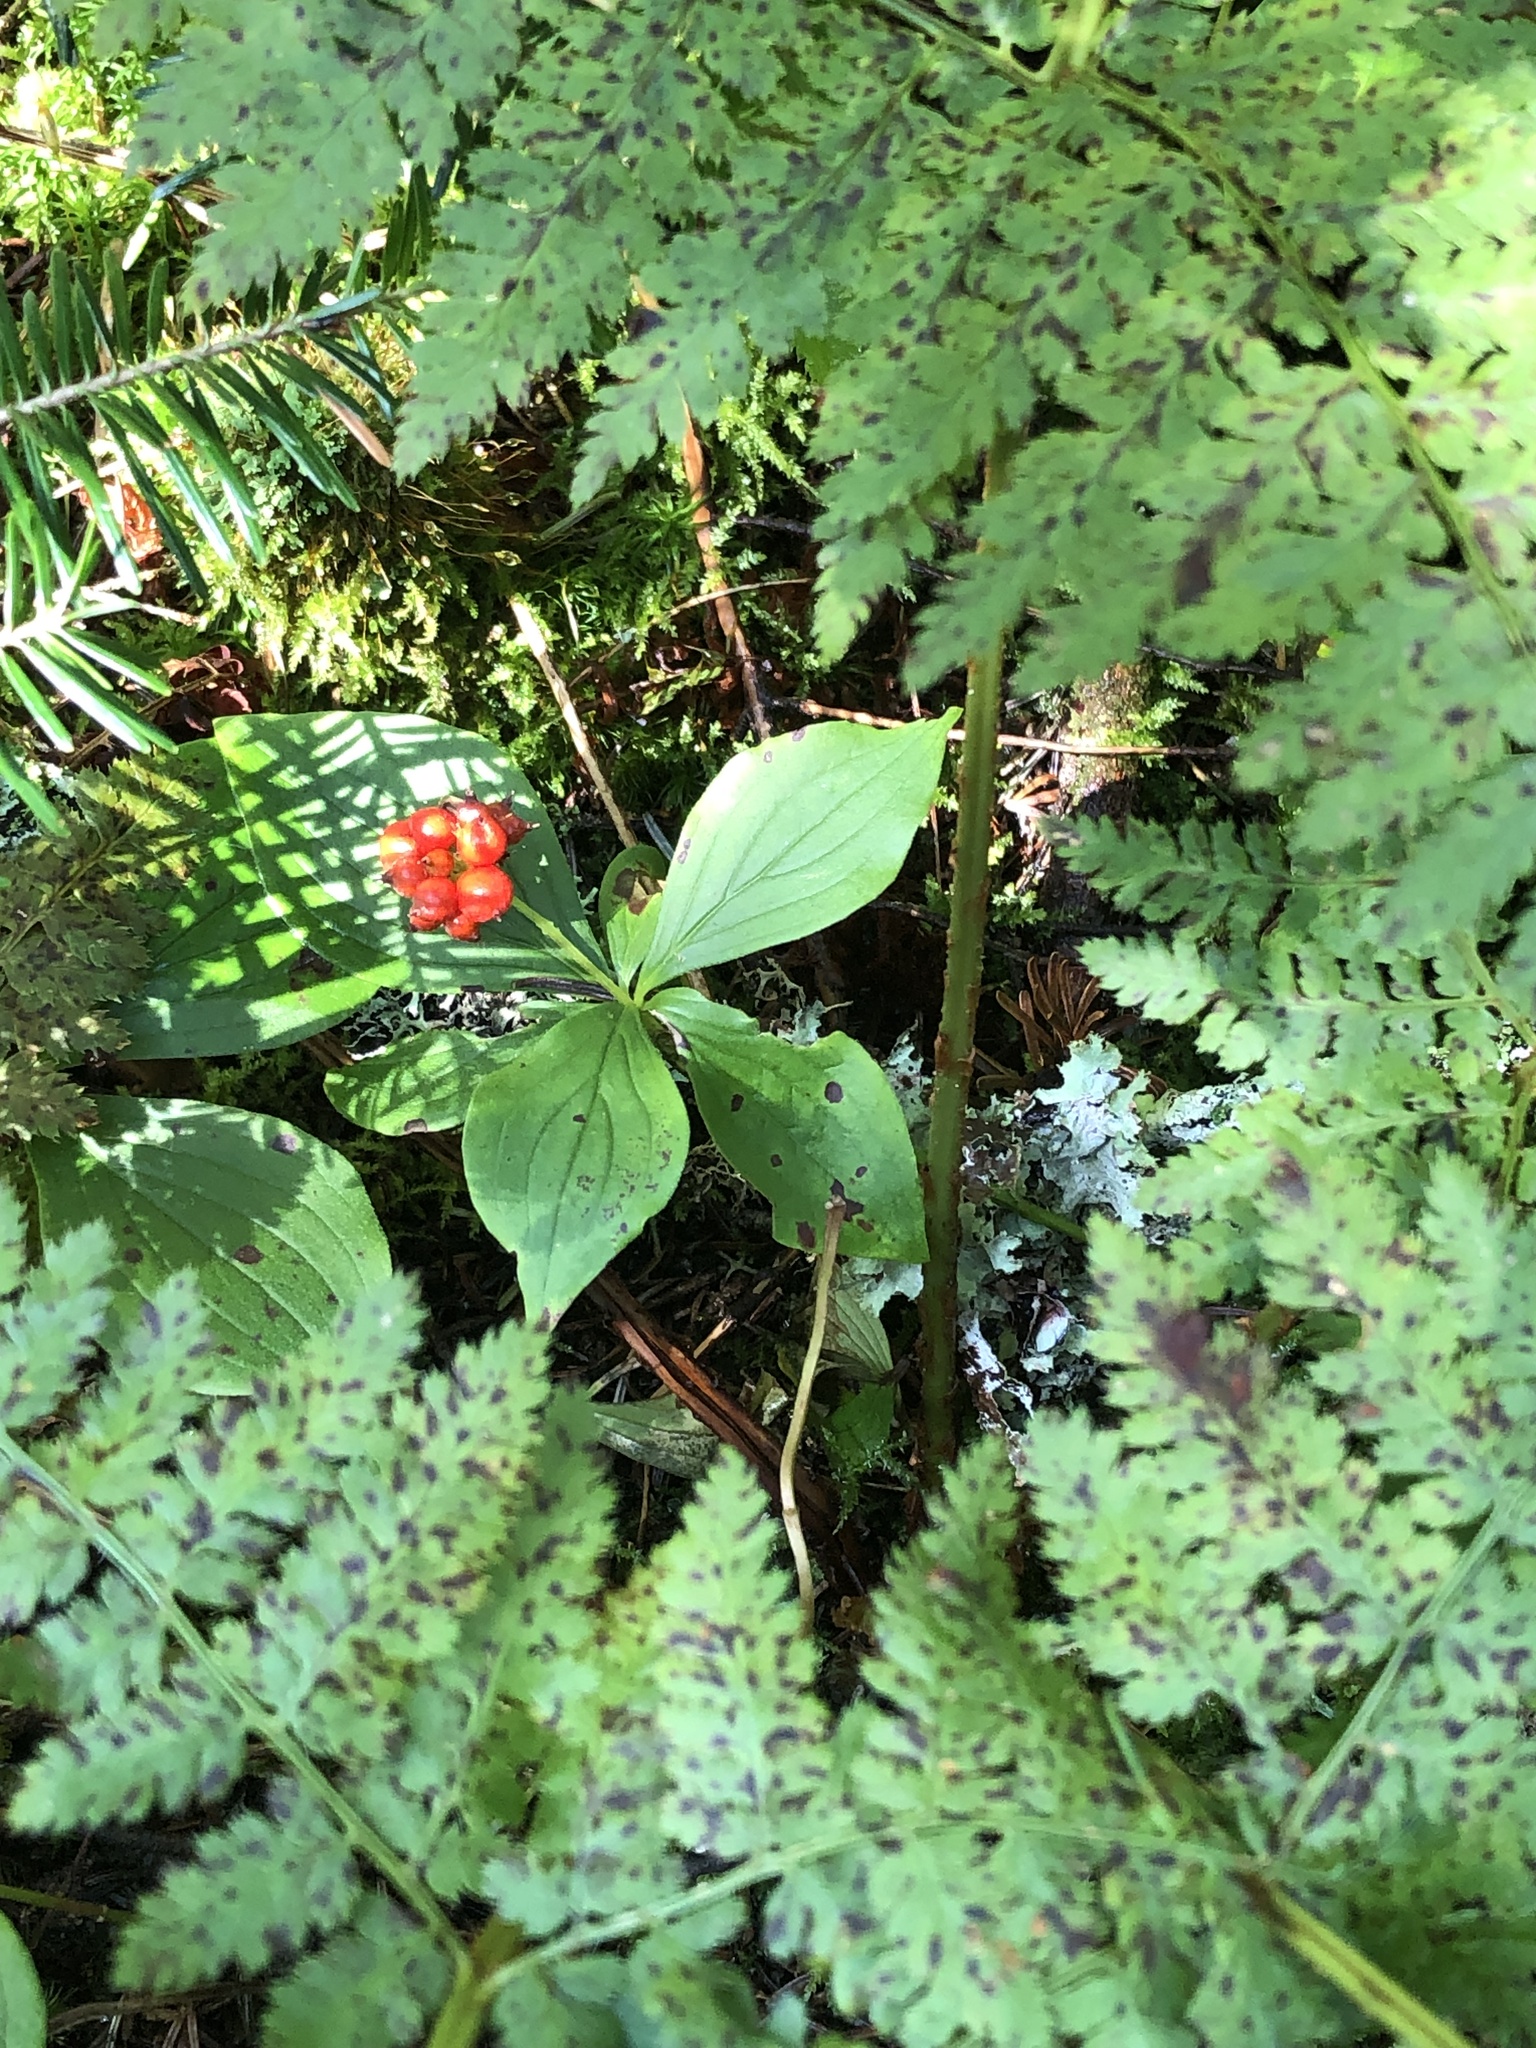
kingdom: Plantae
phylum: Tracheophyta
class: Magnoliopsida
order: Cornales
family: Cornaceae
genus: Cornus
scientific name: Cornus canadensis
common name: Creeping dogwood
